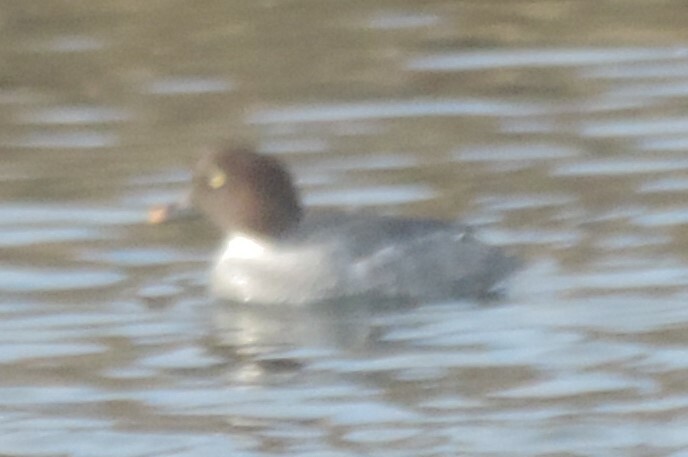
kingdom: Animalia
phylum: Chordata
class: Aves
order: Anseriformes
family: Anatidae
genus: Bucephala
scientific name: Bucephala clangula
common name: Common goldeneye
